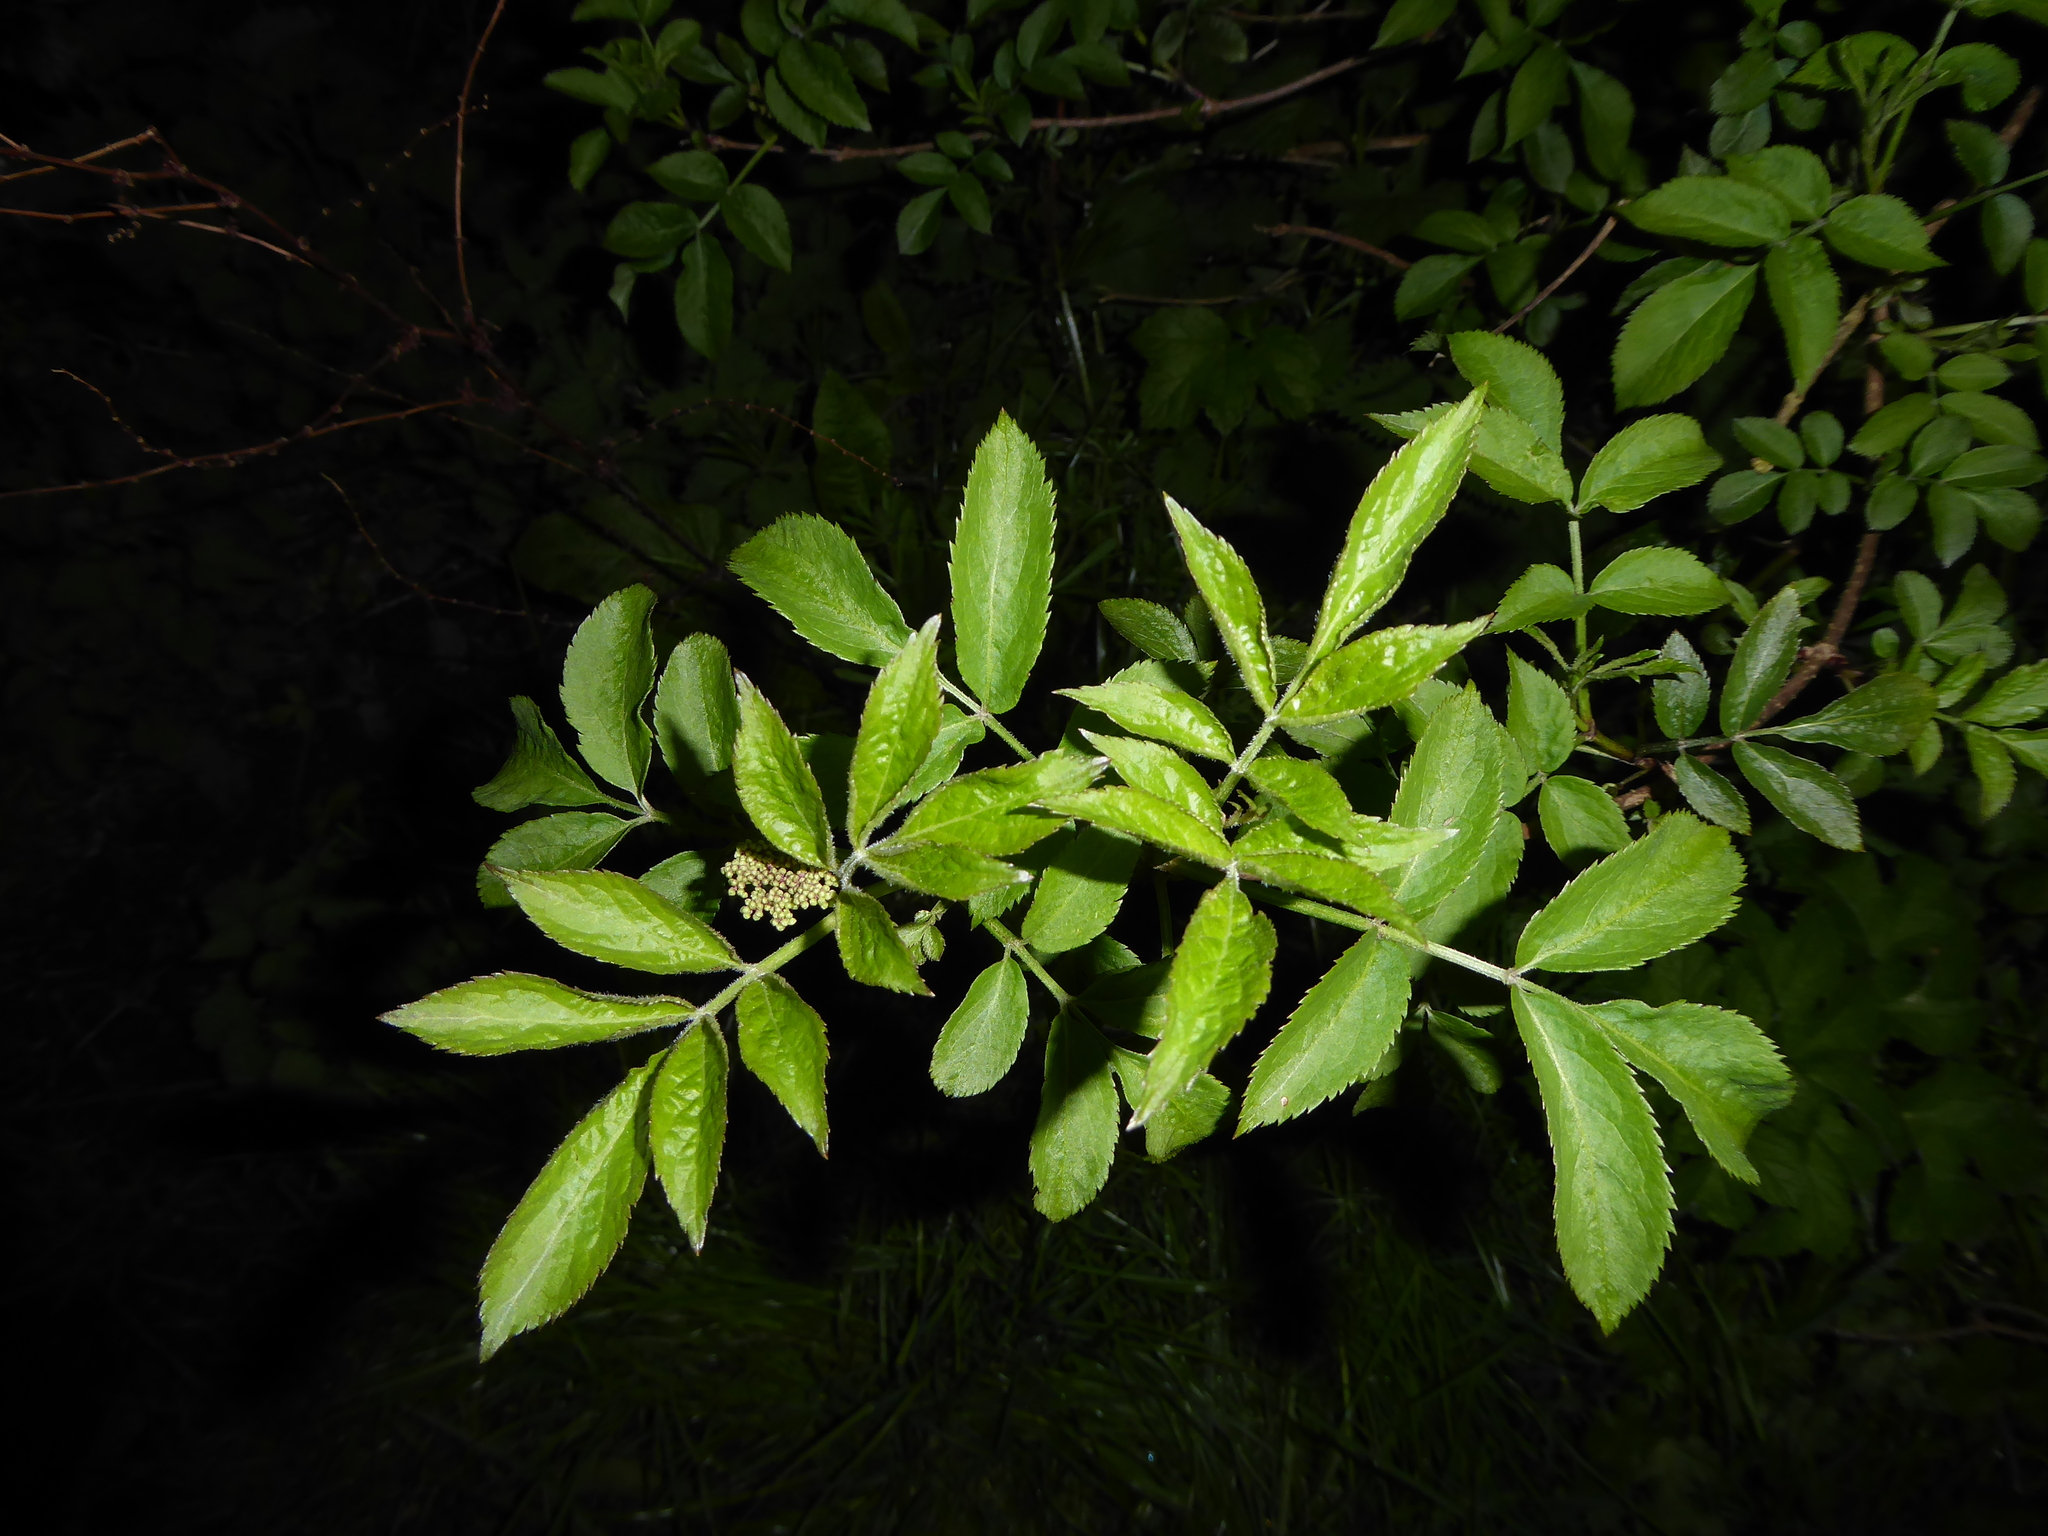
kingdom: Plantae
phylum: Tracheophyta
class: Magnoliopsida
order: Dipsacales
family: Viburnaceae
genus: Sambucus
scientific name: Sambucus nigra
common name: Elder
